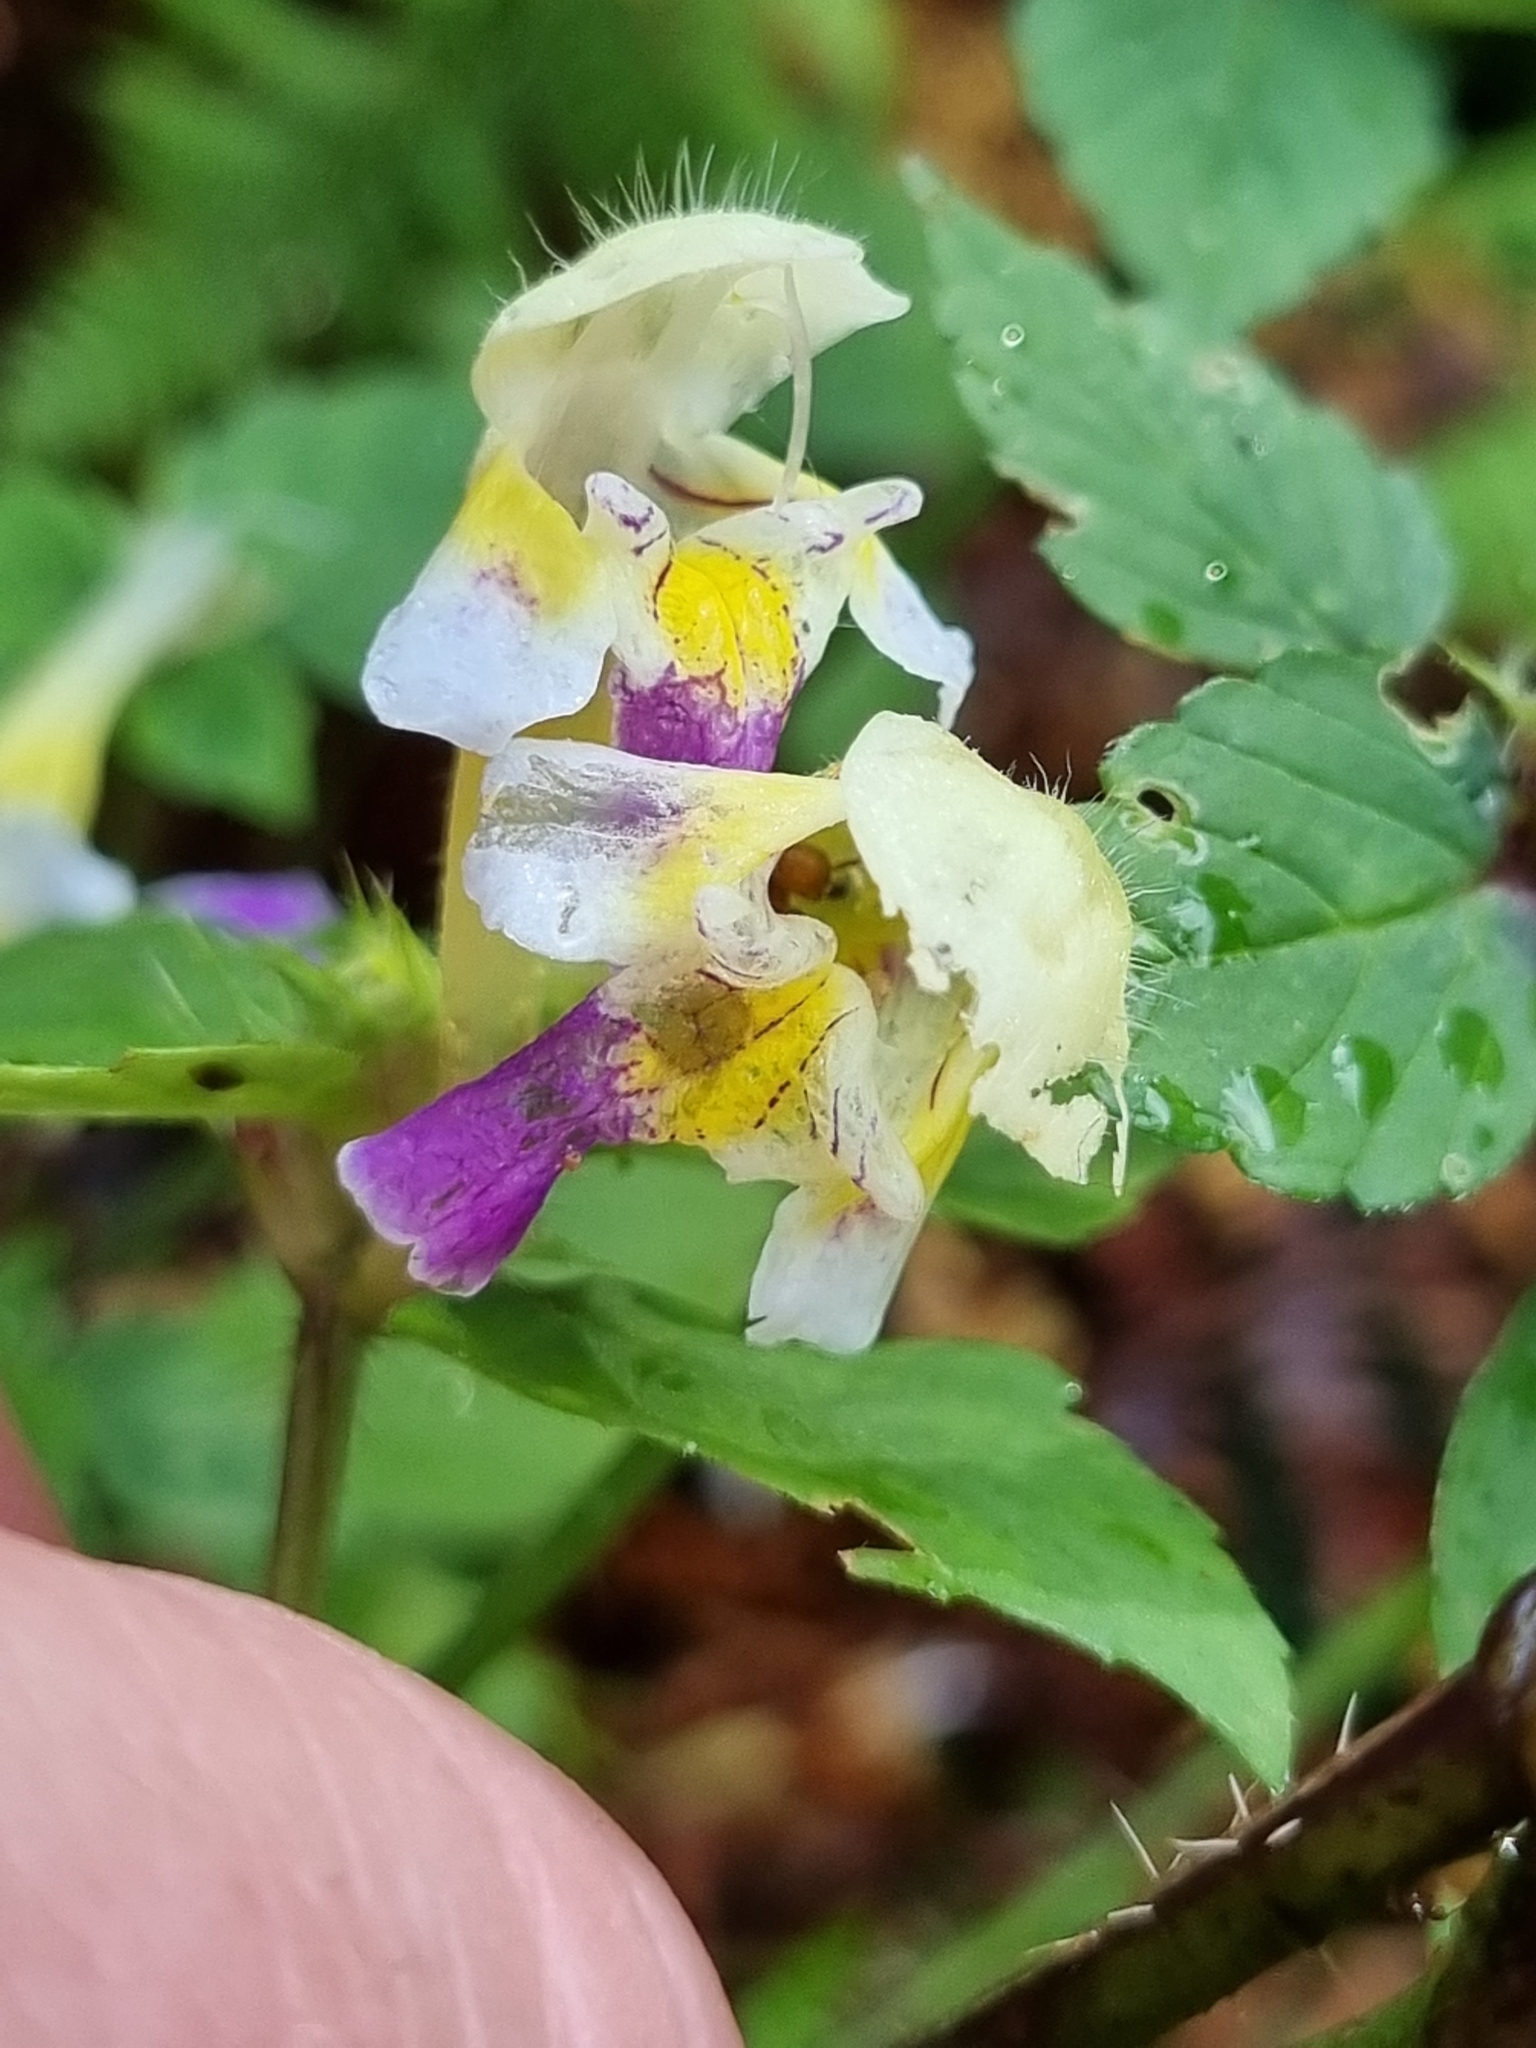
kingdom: Plantae
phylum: Tracheophyta
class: Magnoliopsida
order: Lamiales
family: Lamiaceae
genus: Galeopsis
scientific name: Galeopsis speciosa
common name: Large-flowered hemp-nettle
